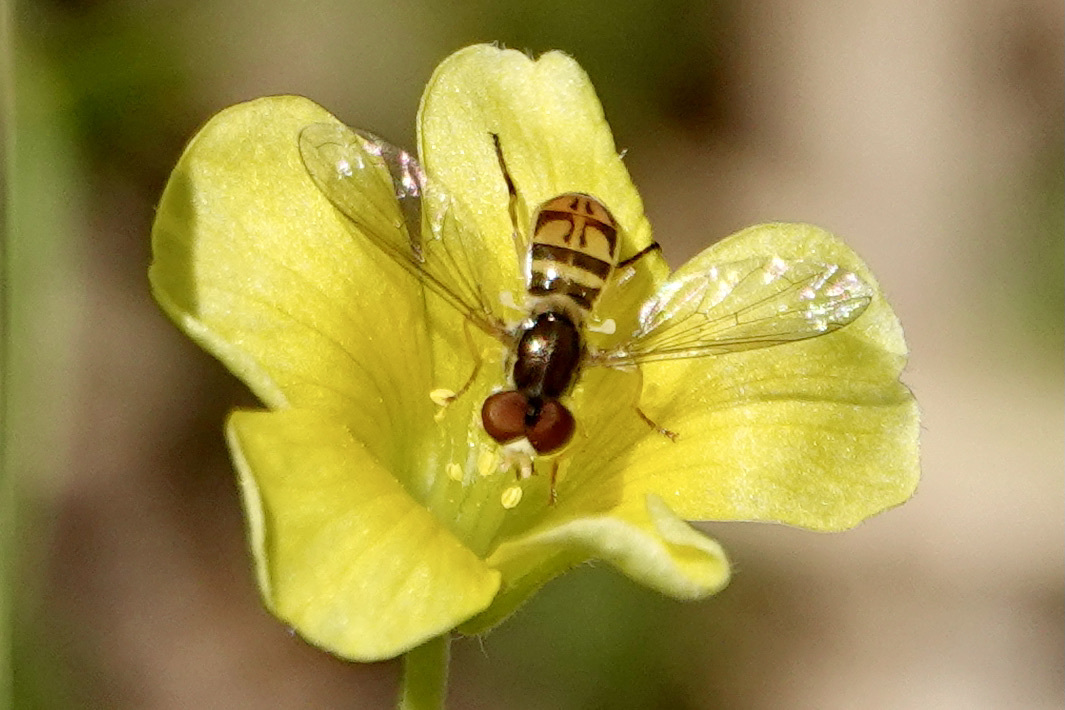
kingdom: Animalia
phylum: Arthropoda
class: Insecta
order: Diptera
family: Syrphidae
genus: Toxomerus
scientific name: Toxomerus marginatus
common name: Syrphid fly
